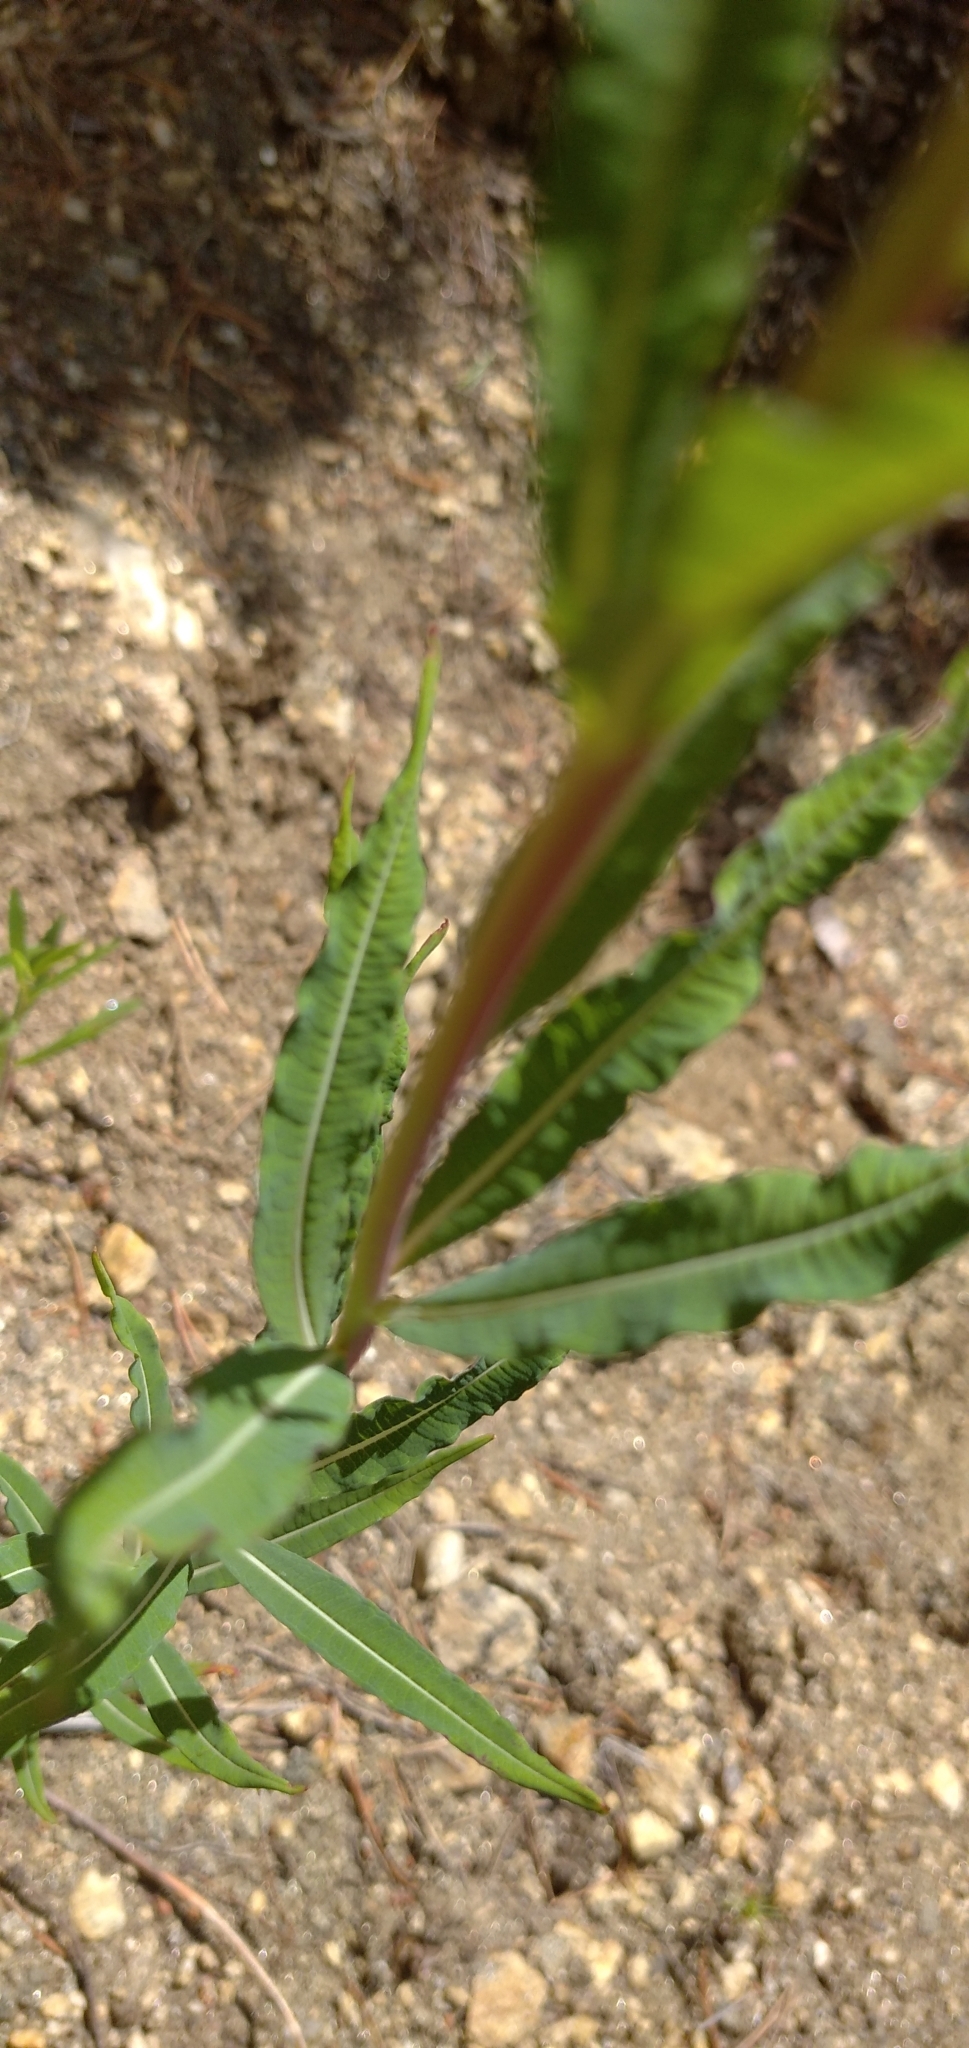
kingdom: Plantae
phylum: Tracheophyta
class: Magnoliopsida
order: Myrtales
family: Onagraceae
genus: Chamaenerion
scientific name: Chamaenerion angustifolium
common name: Fireweed
